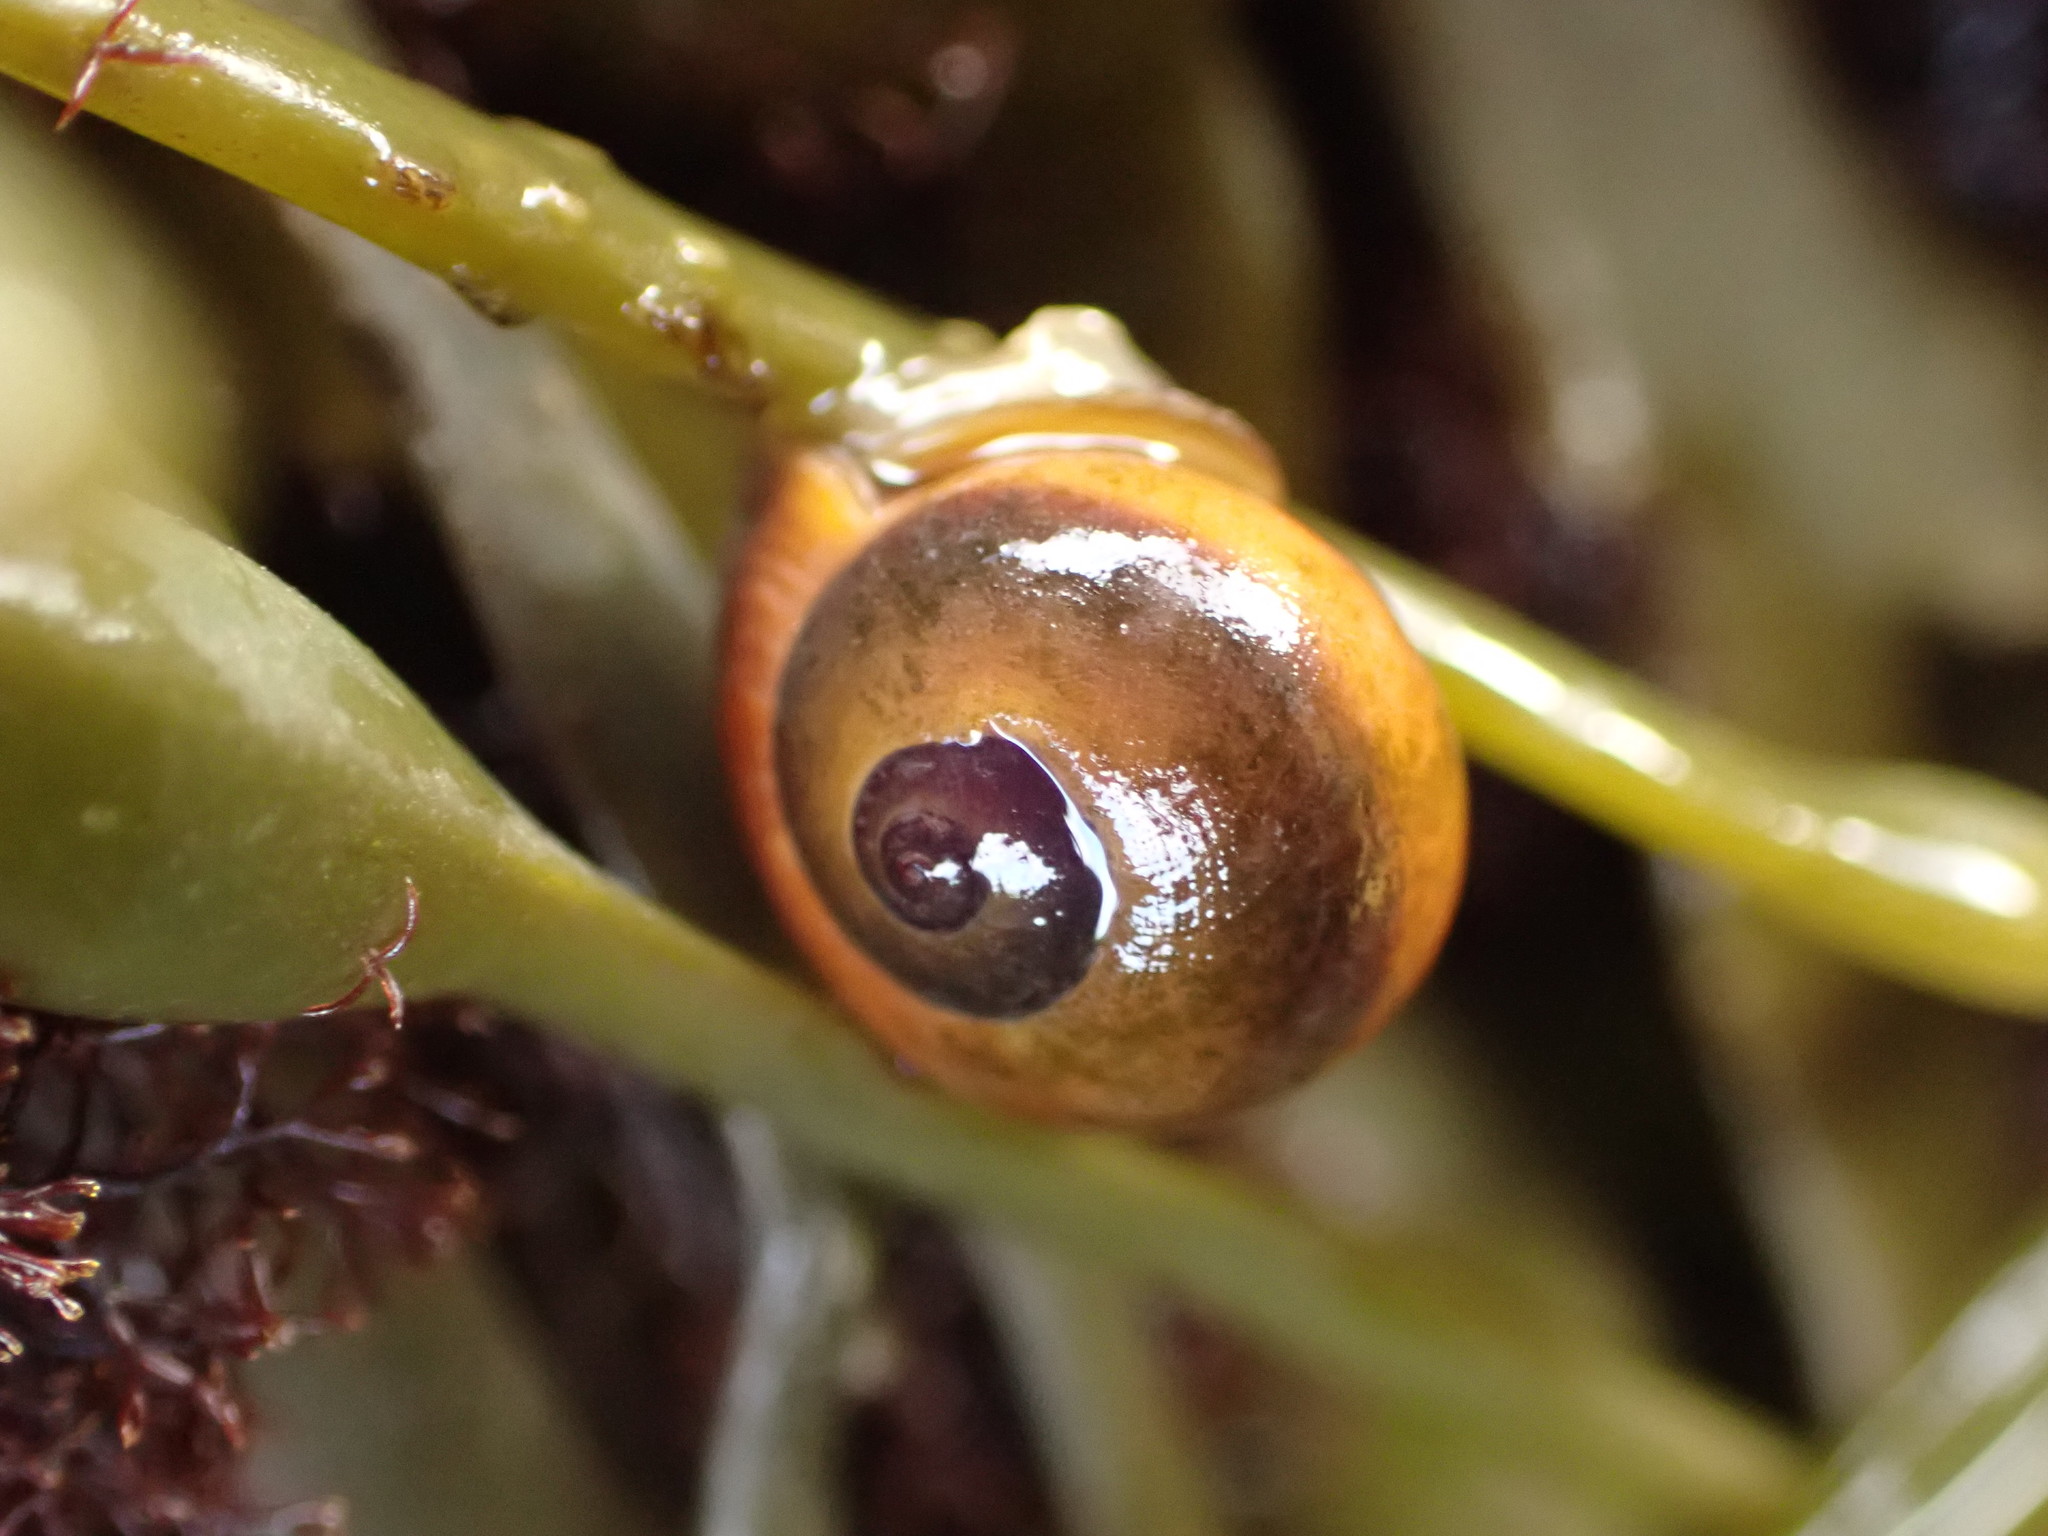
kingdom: Animalia
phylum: Mollusca
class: Gastropoda
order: Littorinimorpha
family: Littorinidae
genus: Littorina
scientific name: Littorina obtusata
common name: Flat periwinkle
